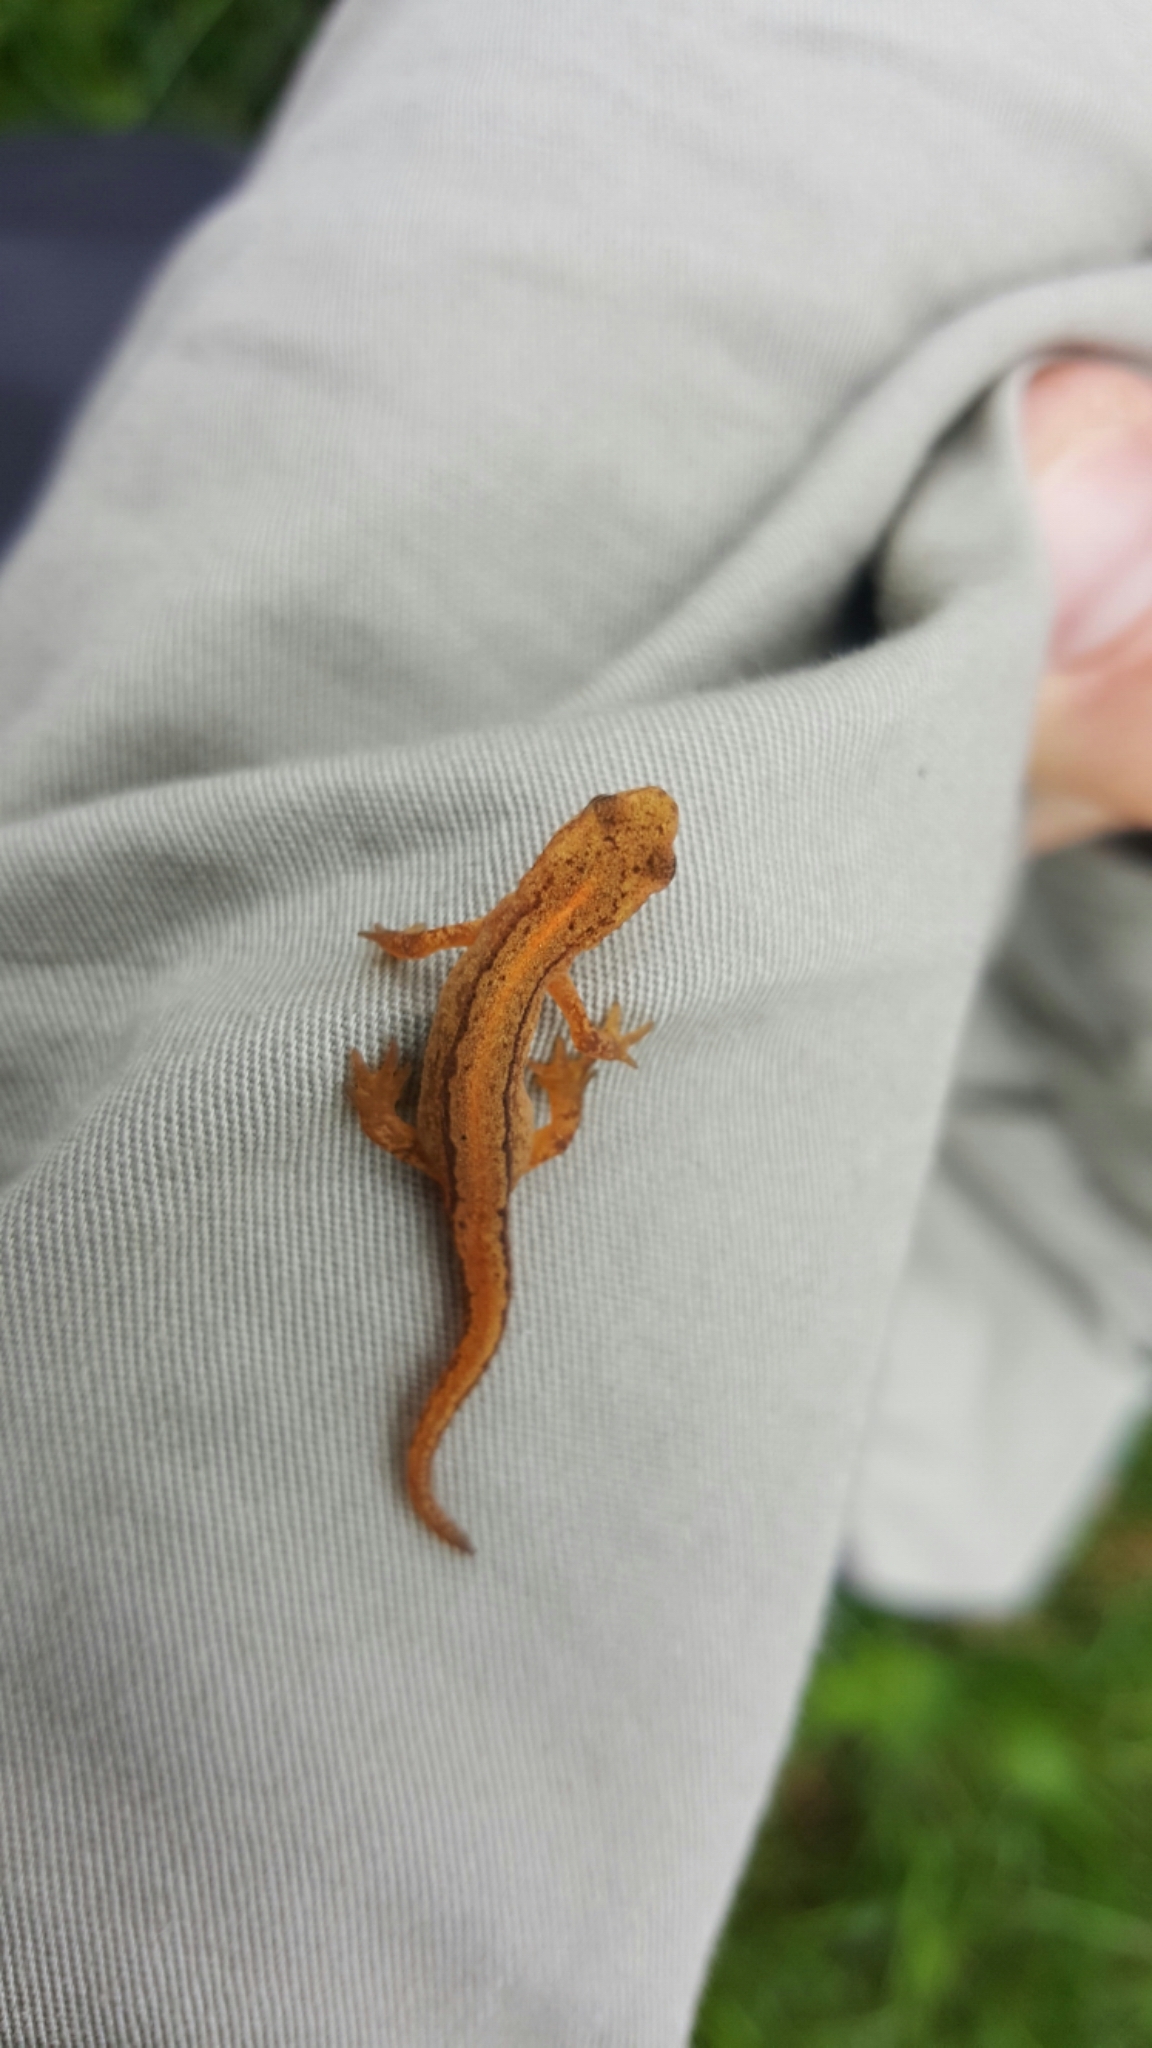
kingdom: Animalia
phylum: Chordata
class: Amphibia
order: Caudata
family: Salamandridae
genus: Lissotriton
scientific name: Lissotriton vulgaris
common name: Smooth newt
